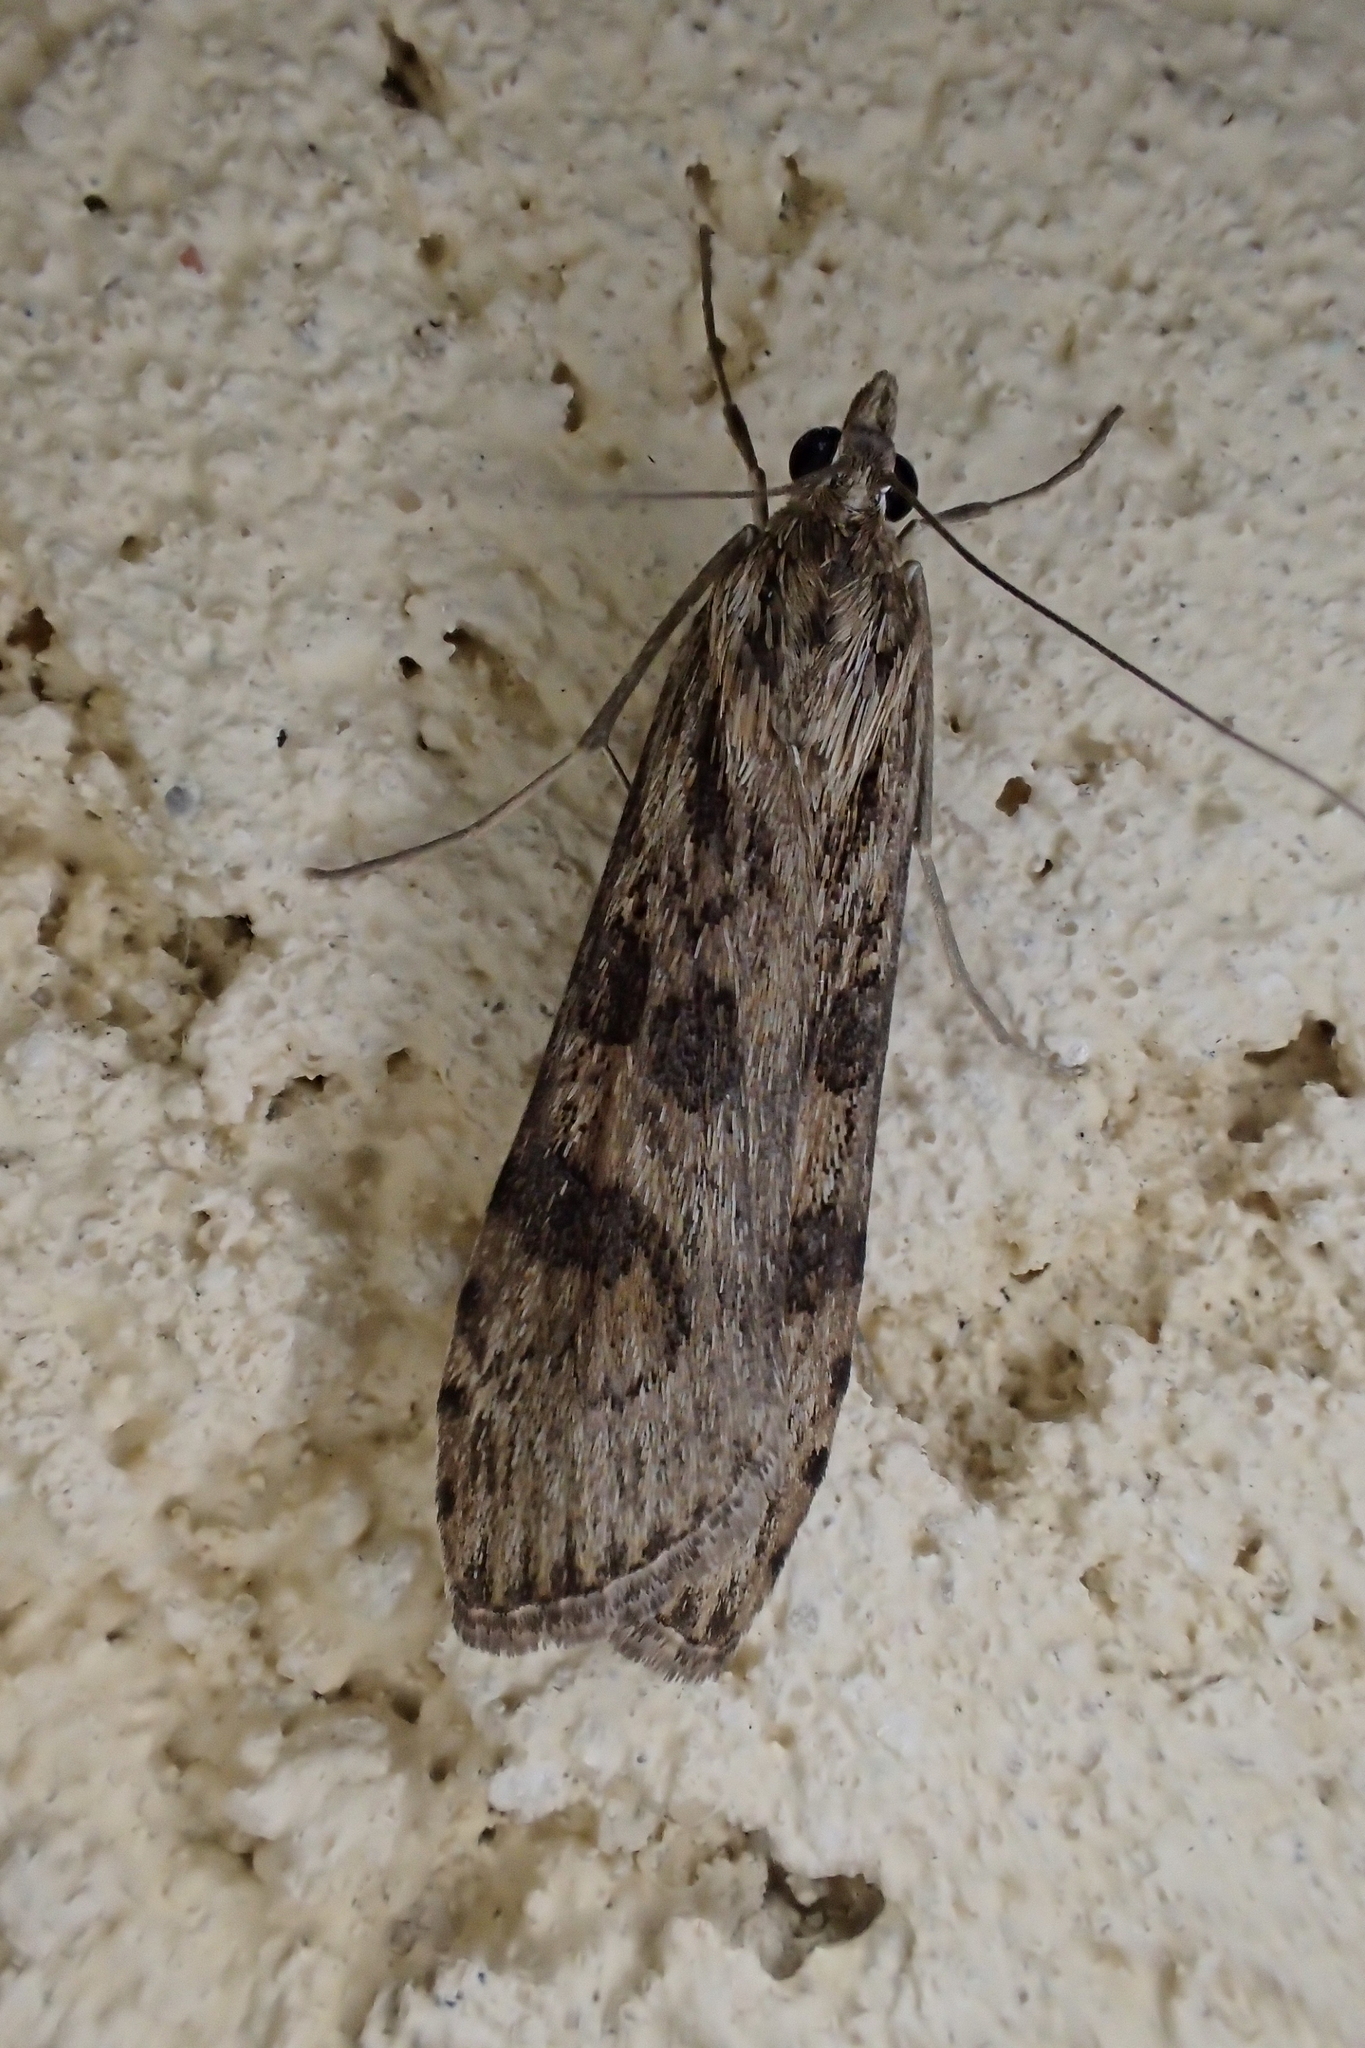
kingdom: Animalia
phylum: Arthropoda
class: Insecta
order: Lepidoptera
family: Crambidae
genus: Nomophila
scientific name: Nomophila noctuella
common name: Rush veneer
